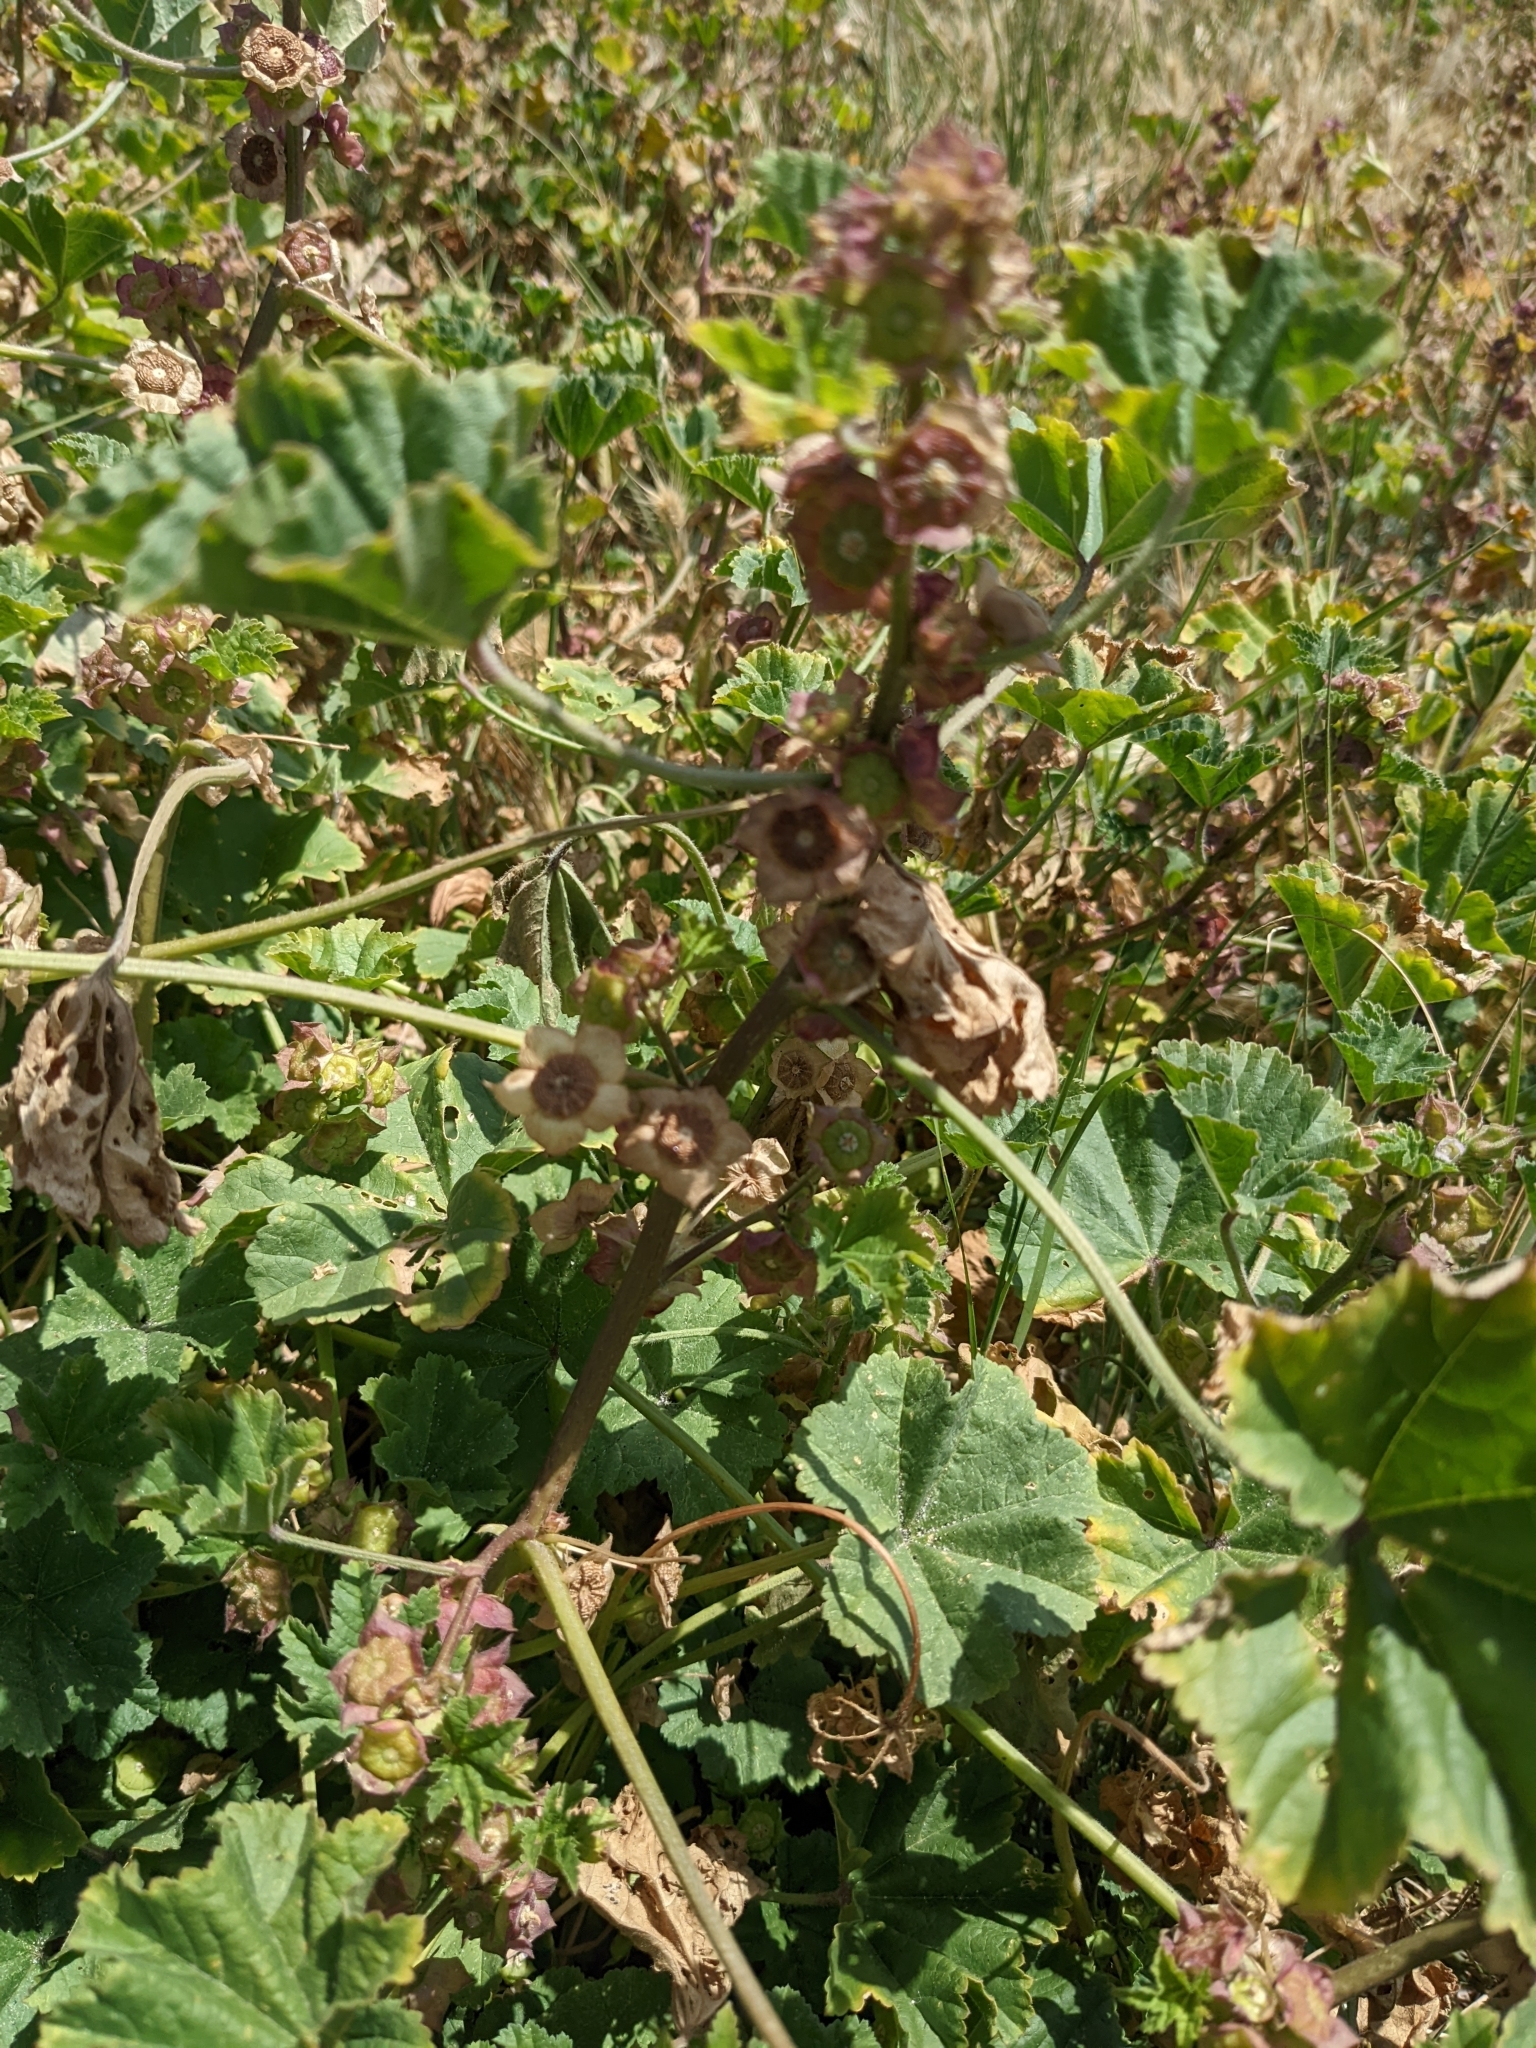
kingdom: Plantae
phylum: Tracheophyta
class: Magnoliopsida
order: Malvales
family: Malvaceae
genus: Malva
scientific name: Malva parviflora
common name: Least mallow
